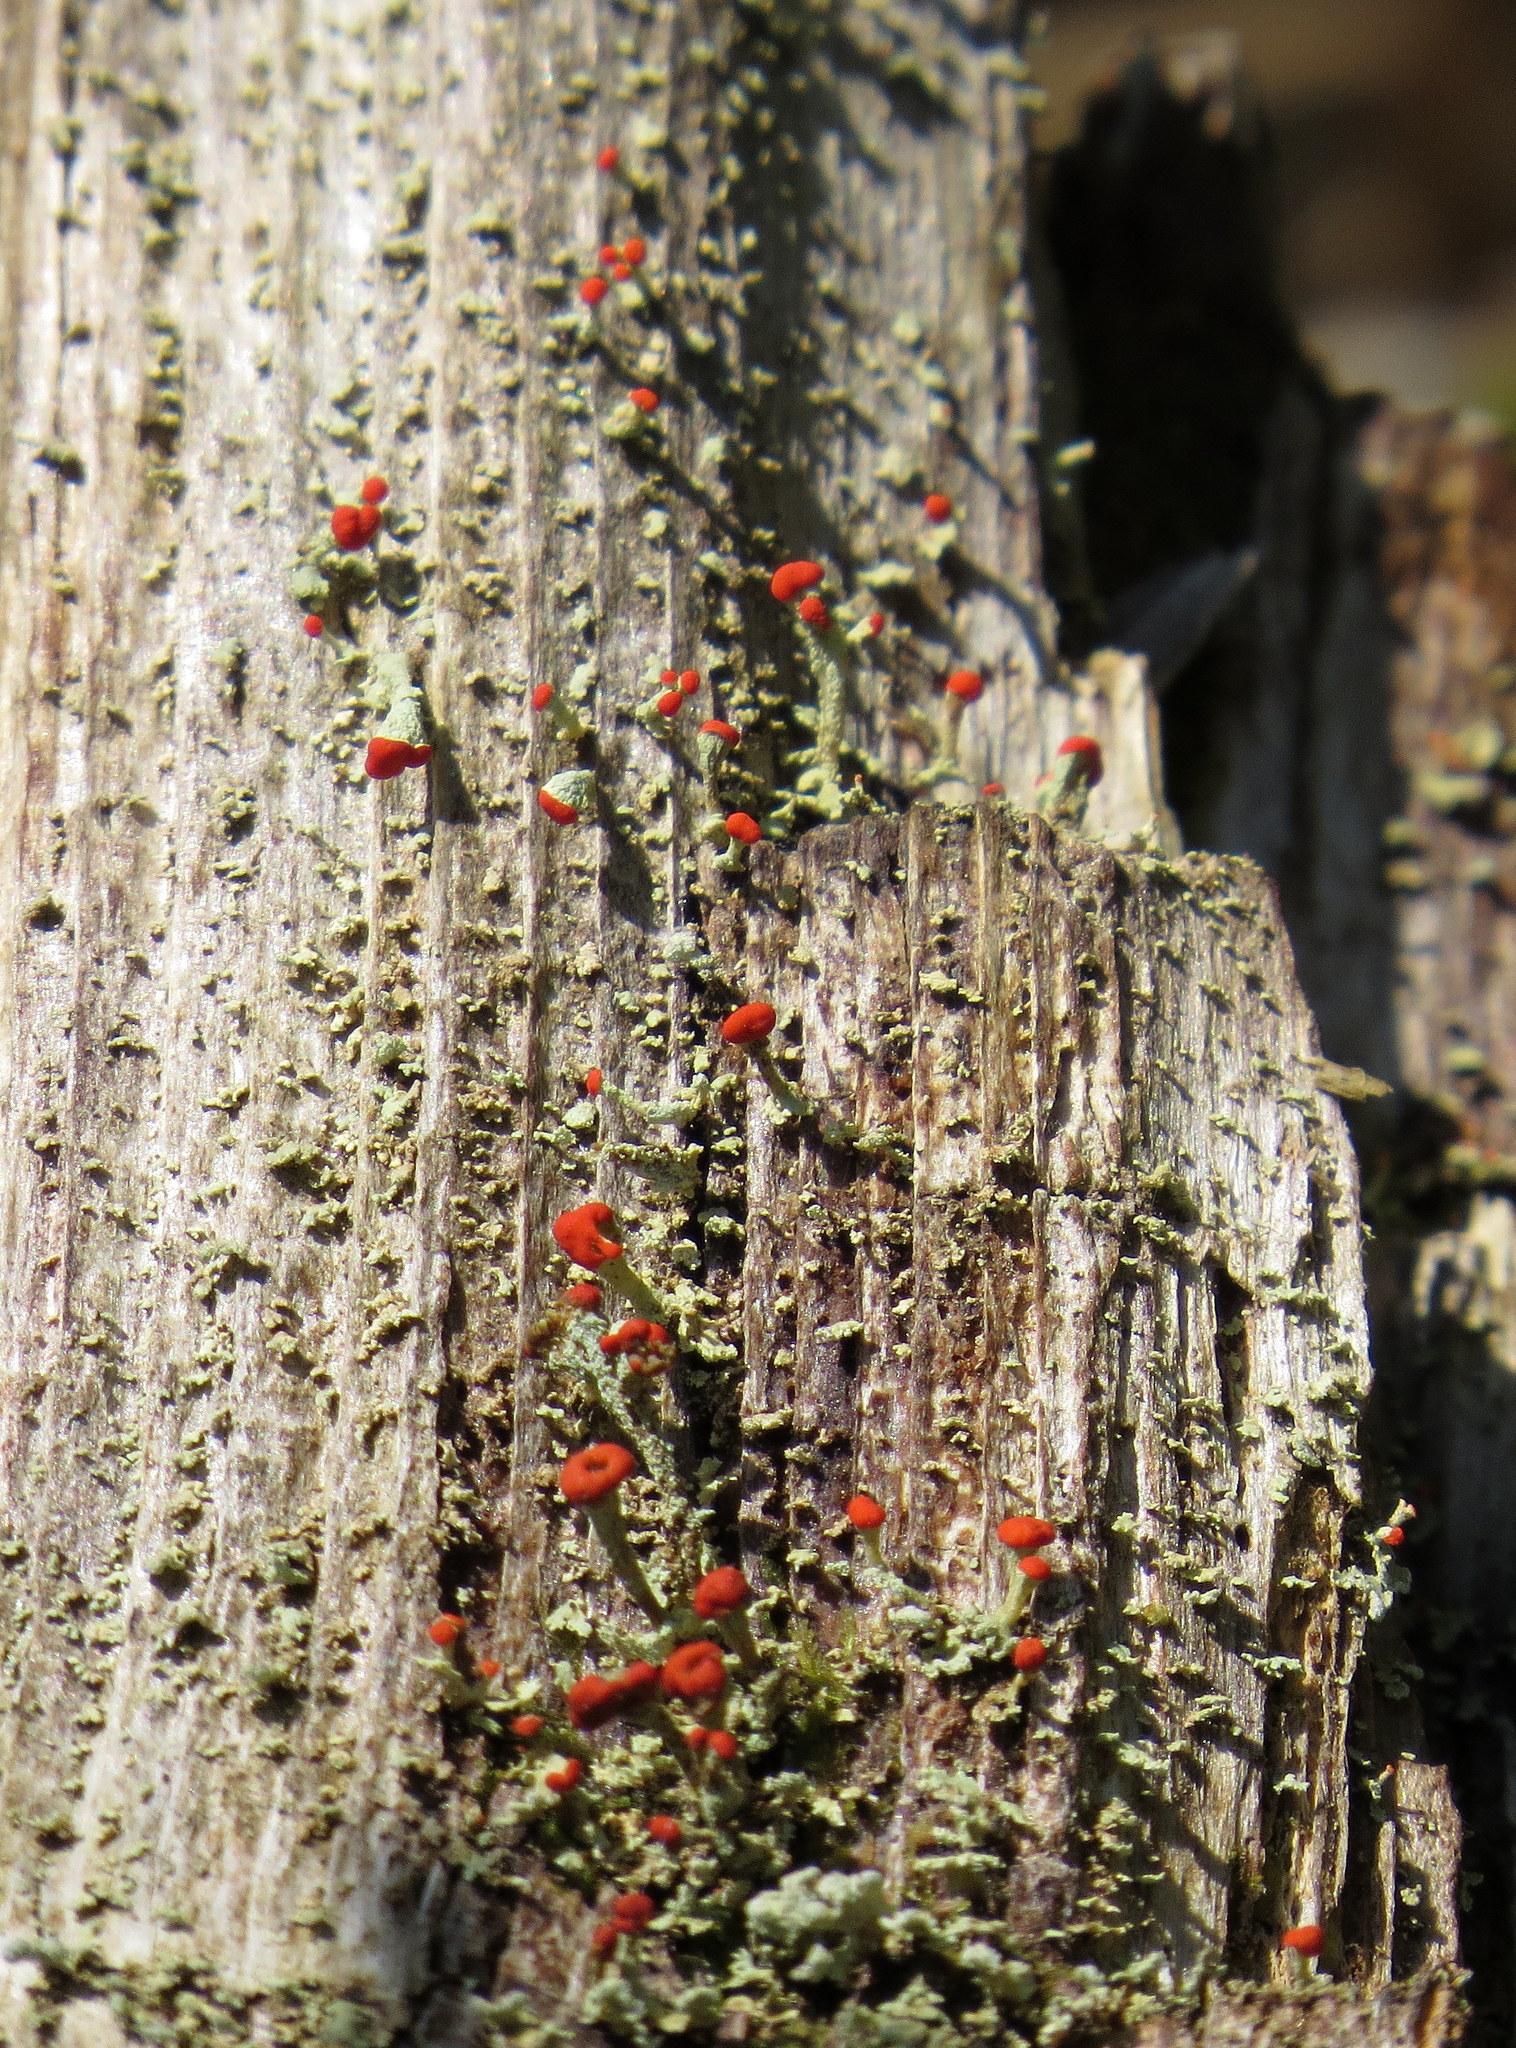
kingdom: Fungi
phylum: Ascomycota
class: Lecanoromycetes
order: Lecanorales
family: Cladoniaceae
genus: Cladonia
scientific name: Cladonia cristatella
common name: British soldier lichen
